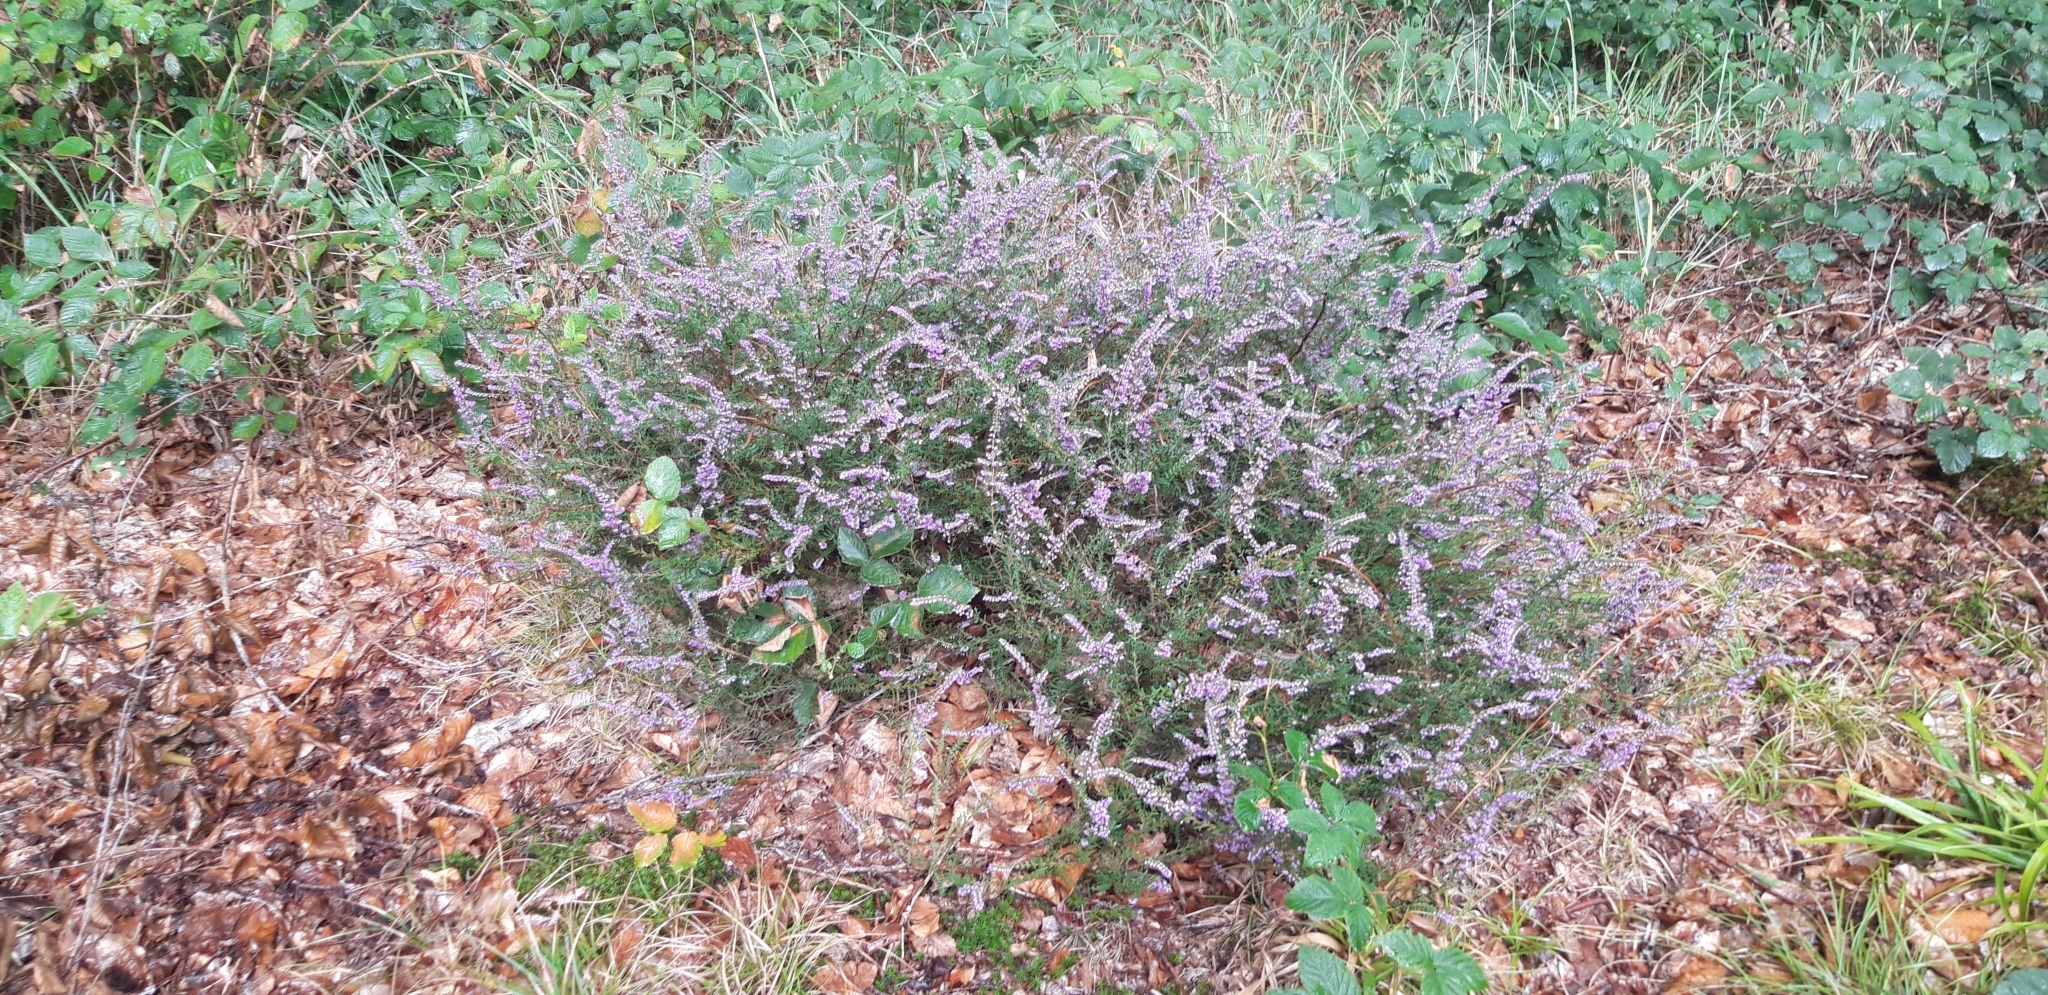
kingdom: Plantae
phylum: Tracheophyta
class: Magnoliopsida
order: Ericales
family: Ericaceae
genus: Calluna
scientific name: Calluna vulgaris
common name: Heather
